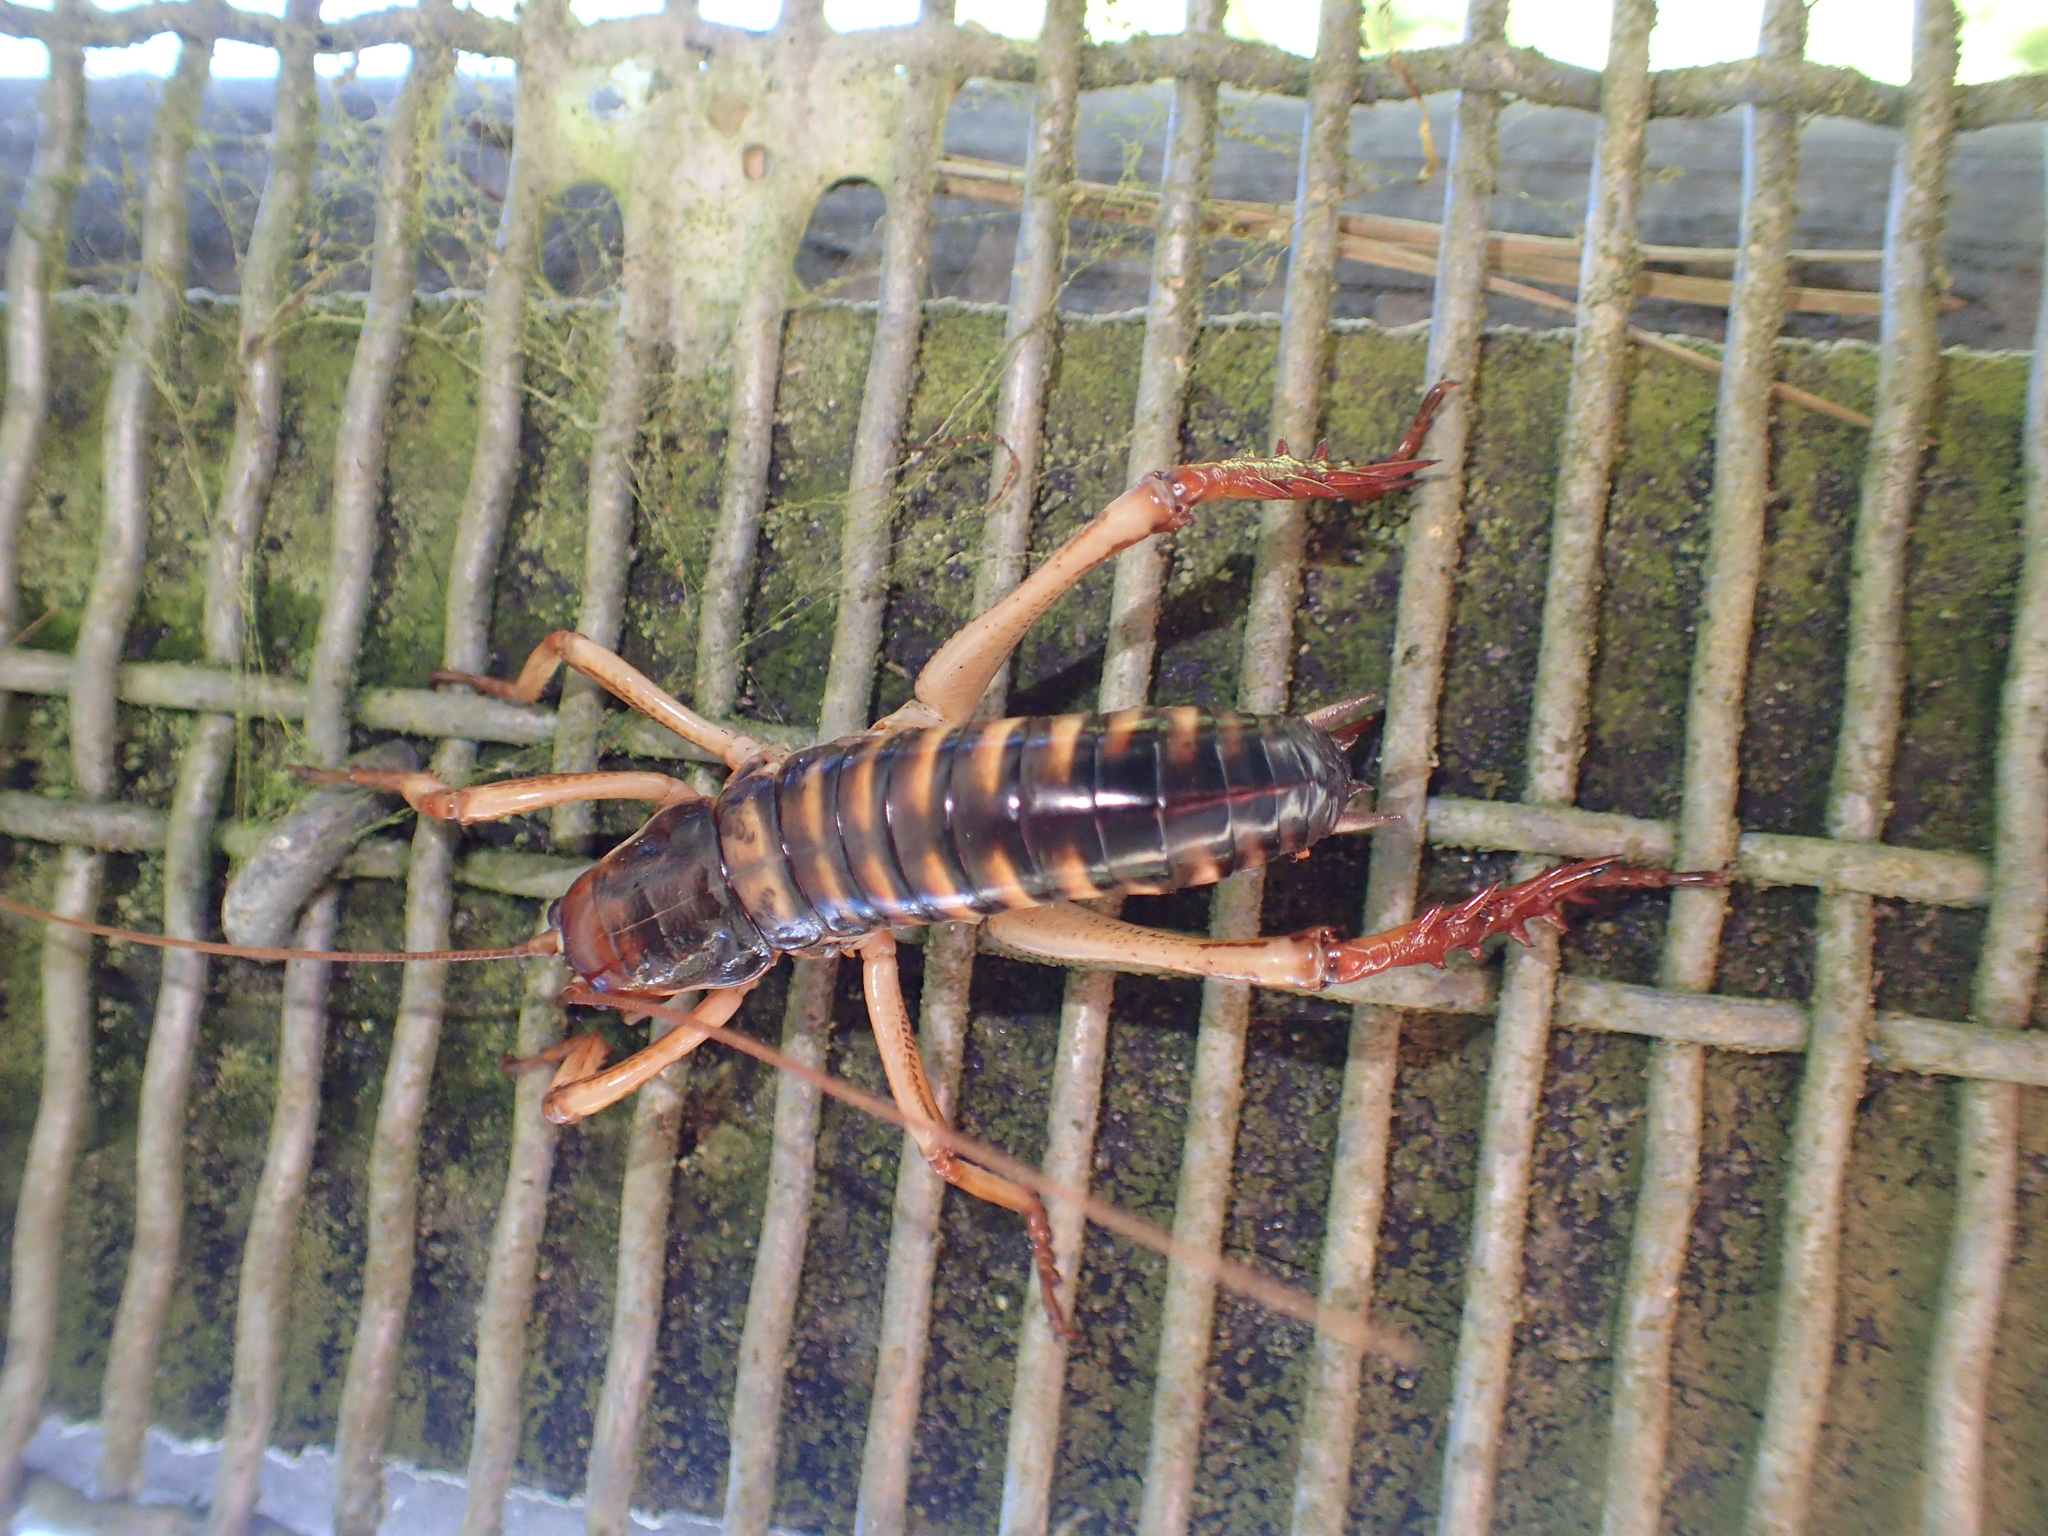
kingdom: Animalia
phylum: Arthropoda
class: Insecta
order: Orthoptera
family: Anostostomatidae
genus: Hemideina
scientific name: Hemideina crassidens
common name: Wellington tree weta
